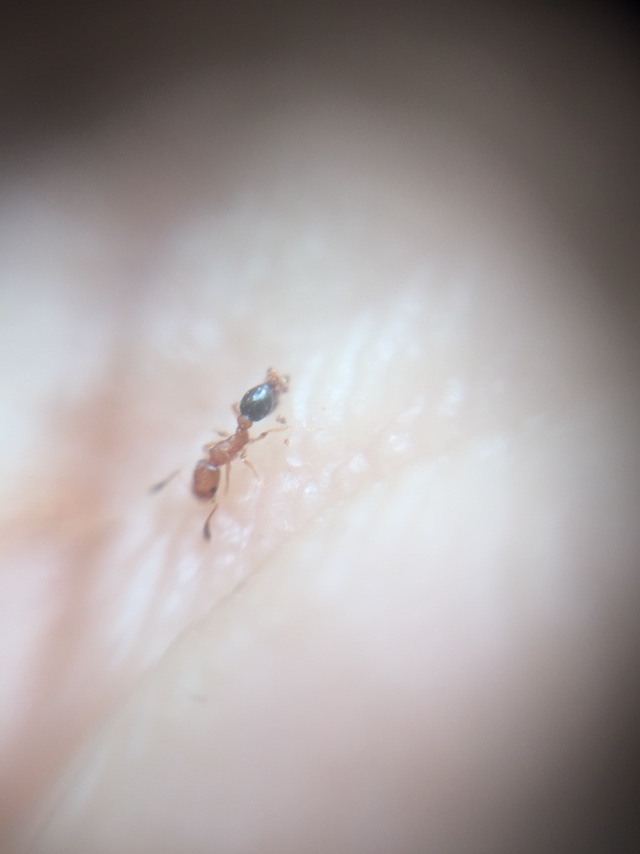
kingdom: Animalia
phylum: Arthropoda
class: Insecta
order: Hymenoptera
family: Formicidae
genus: Cardiocondyla
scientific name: Cardiocondyla minutior
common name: Ant
